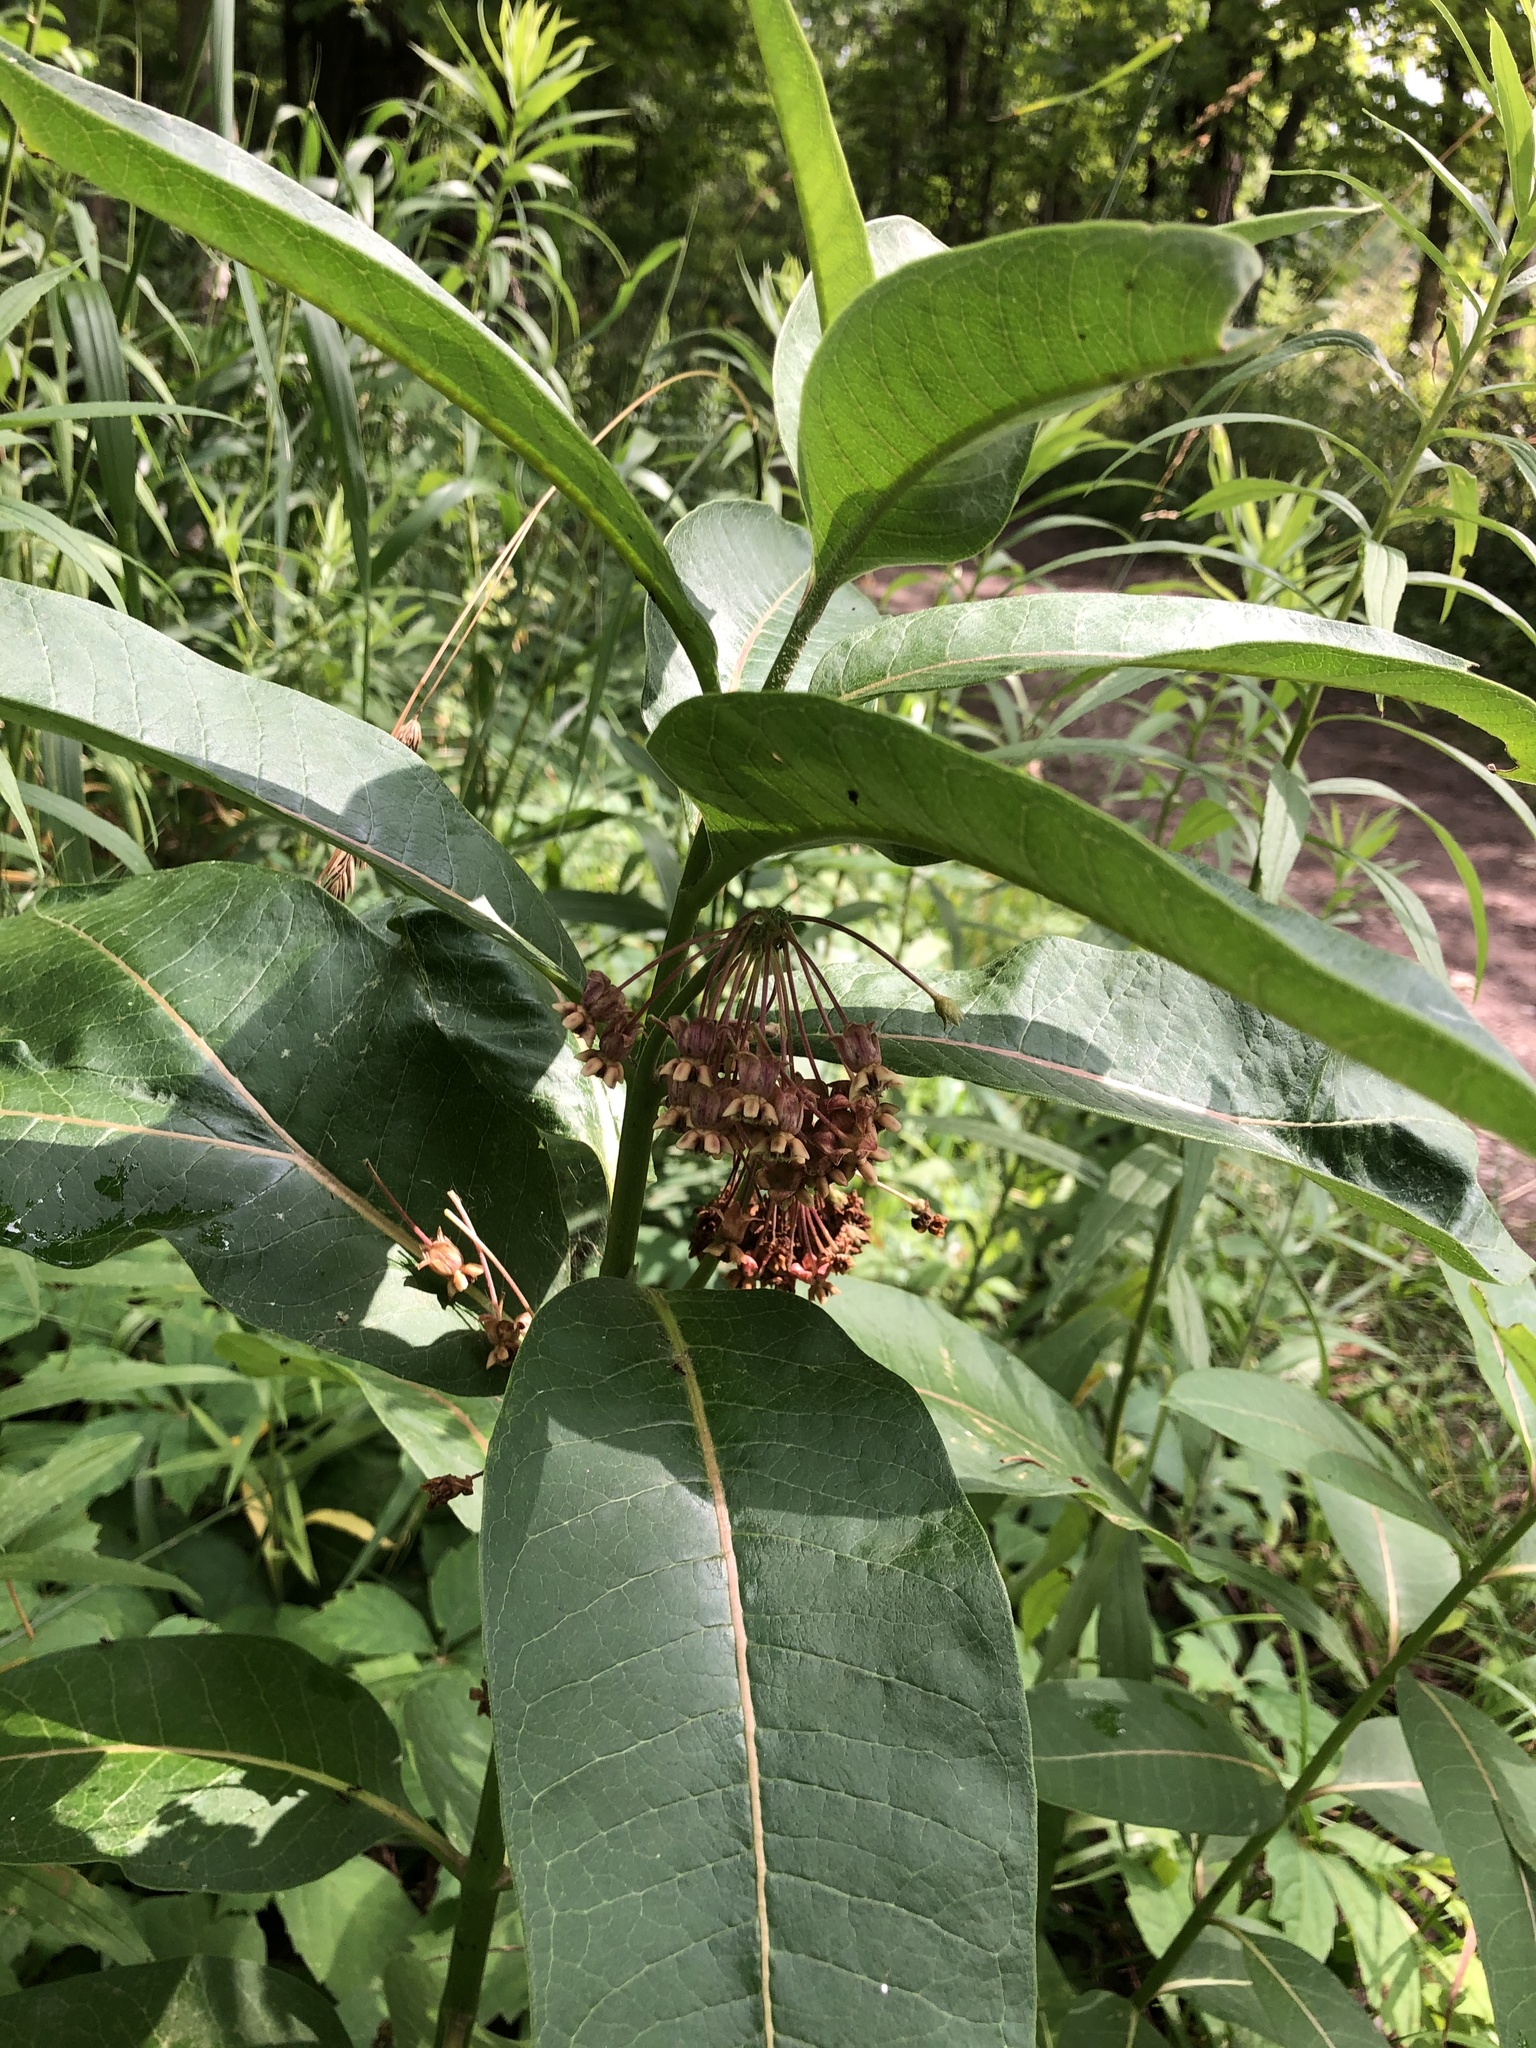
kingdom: Plantae
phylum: Tracheophyta
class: Magnoliopsida
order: Gentianales
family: Apocynaceae
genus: Asclepias
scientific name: Asclepias syriaca
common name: Common milkweed
